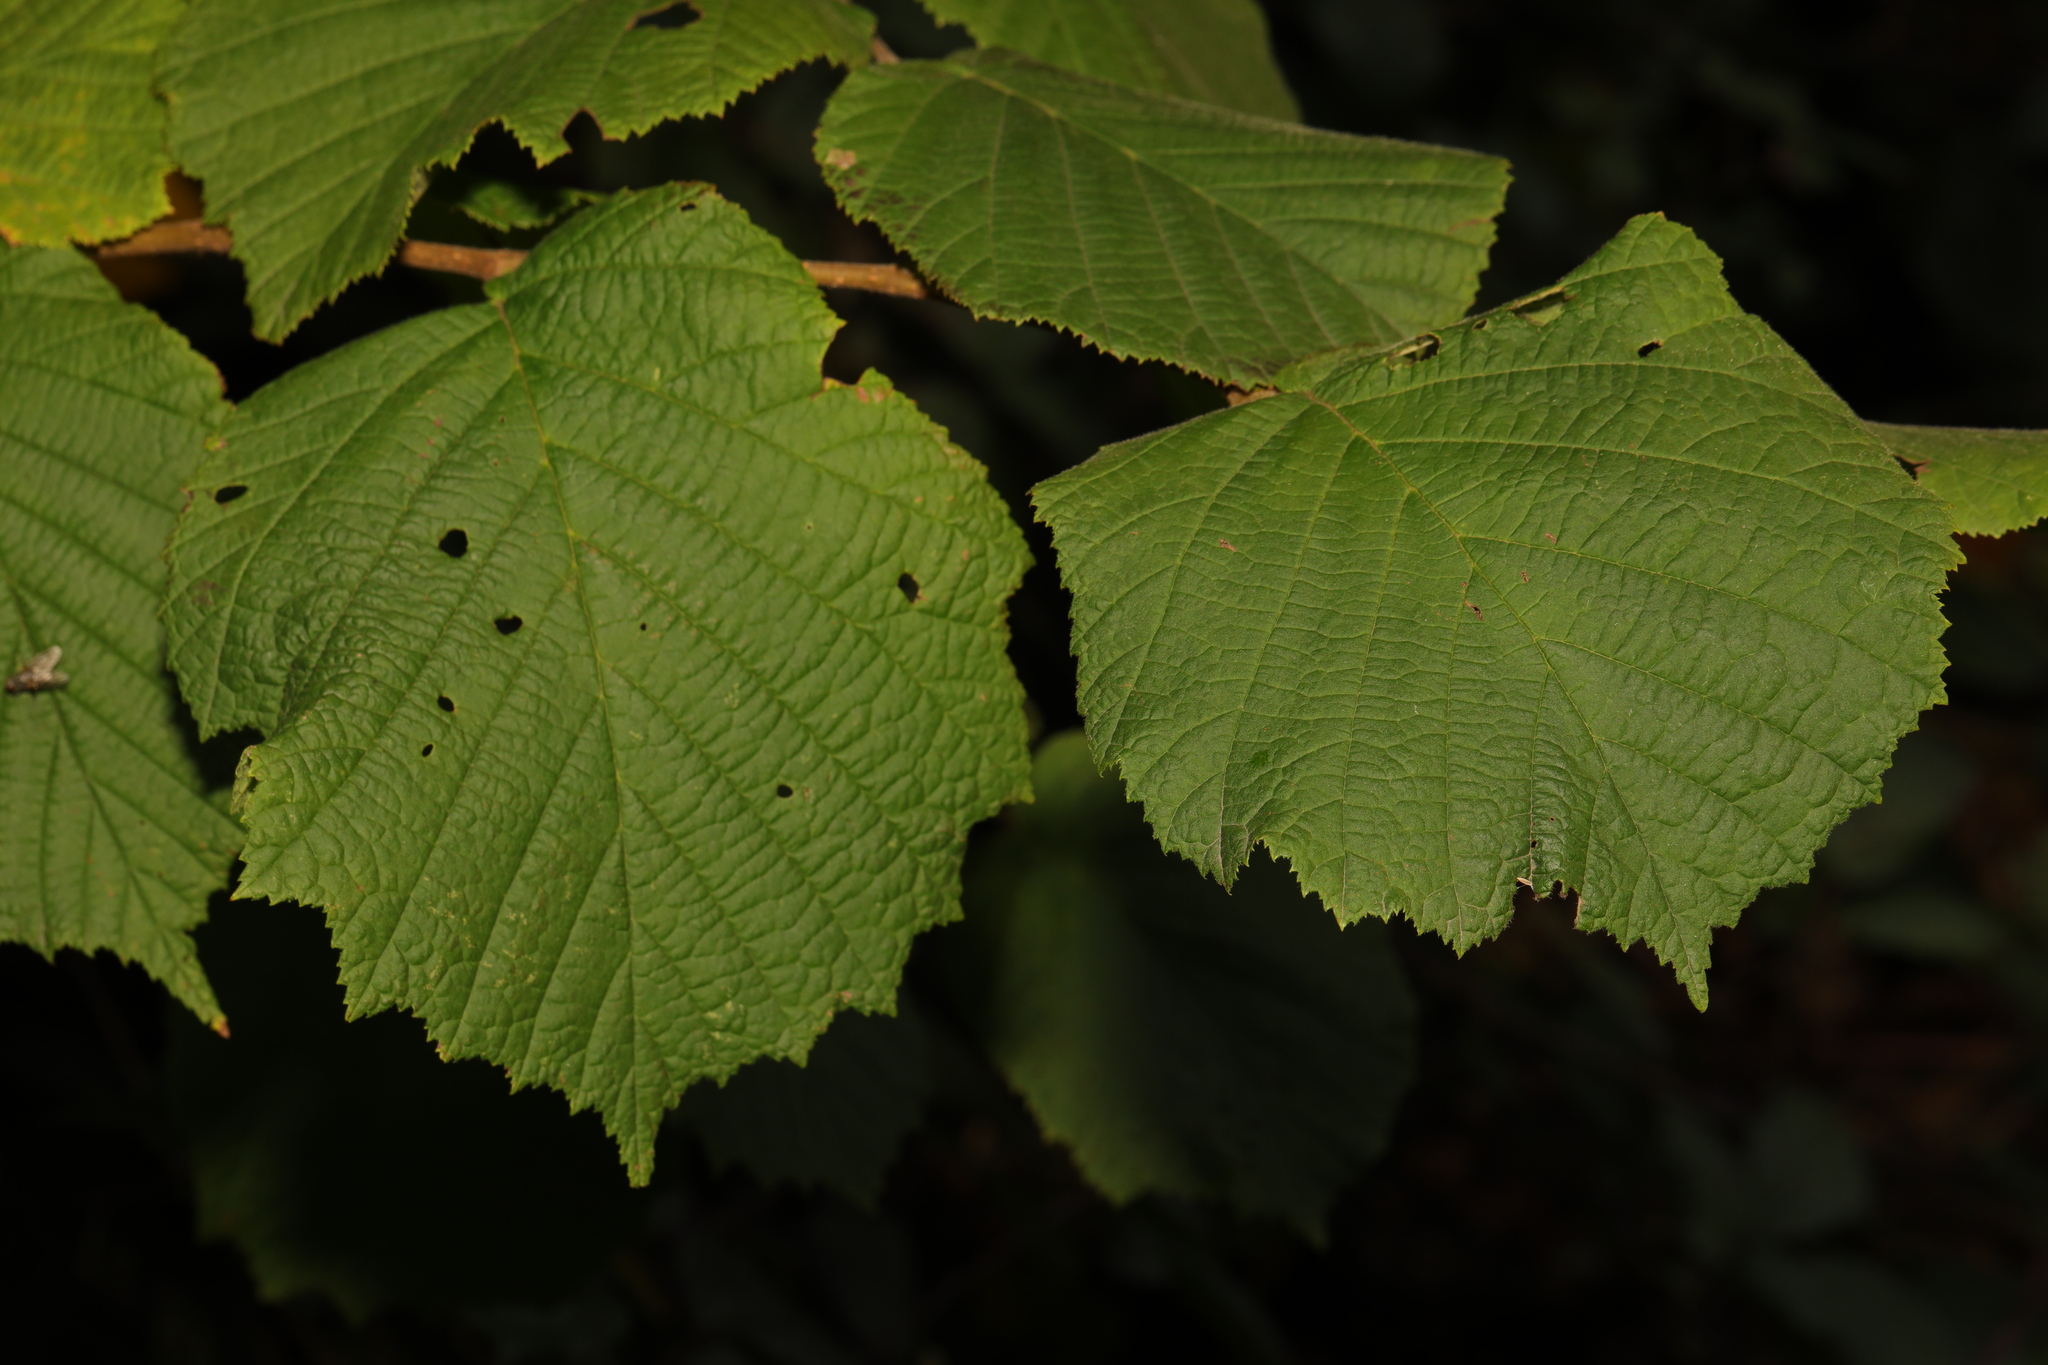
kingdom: Plantae
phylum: Tracheophyta
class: Magnoliopsida
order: Fagales
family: Betulaceae
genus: Corylus
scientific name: Corylus avellana
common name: European hazel
